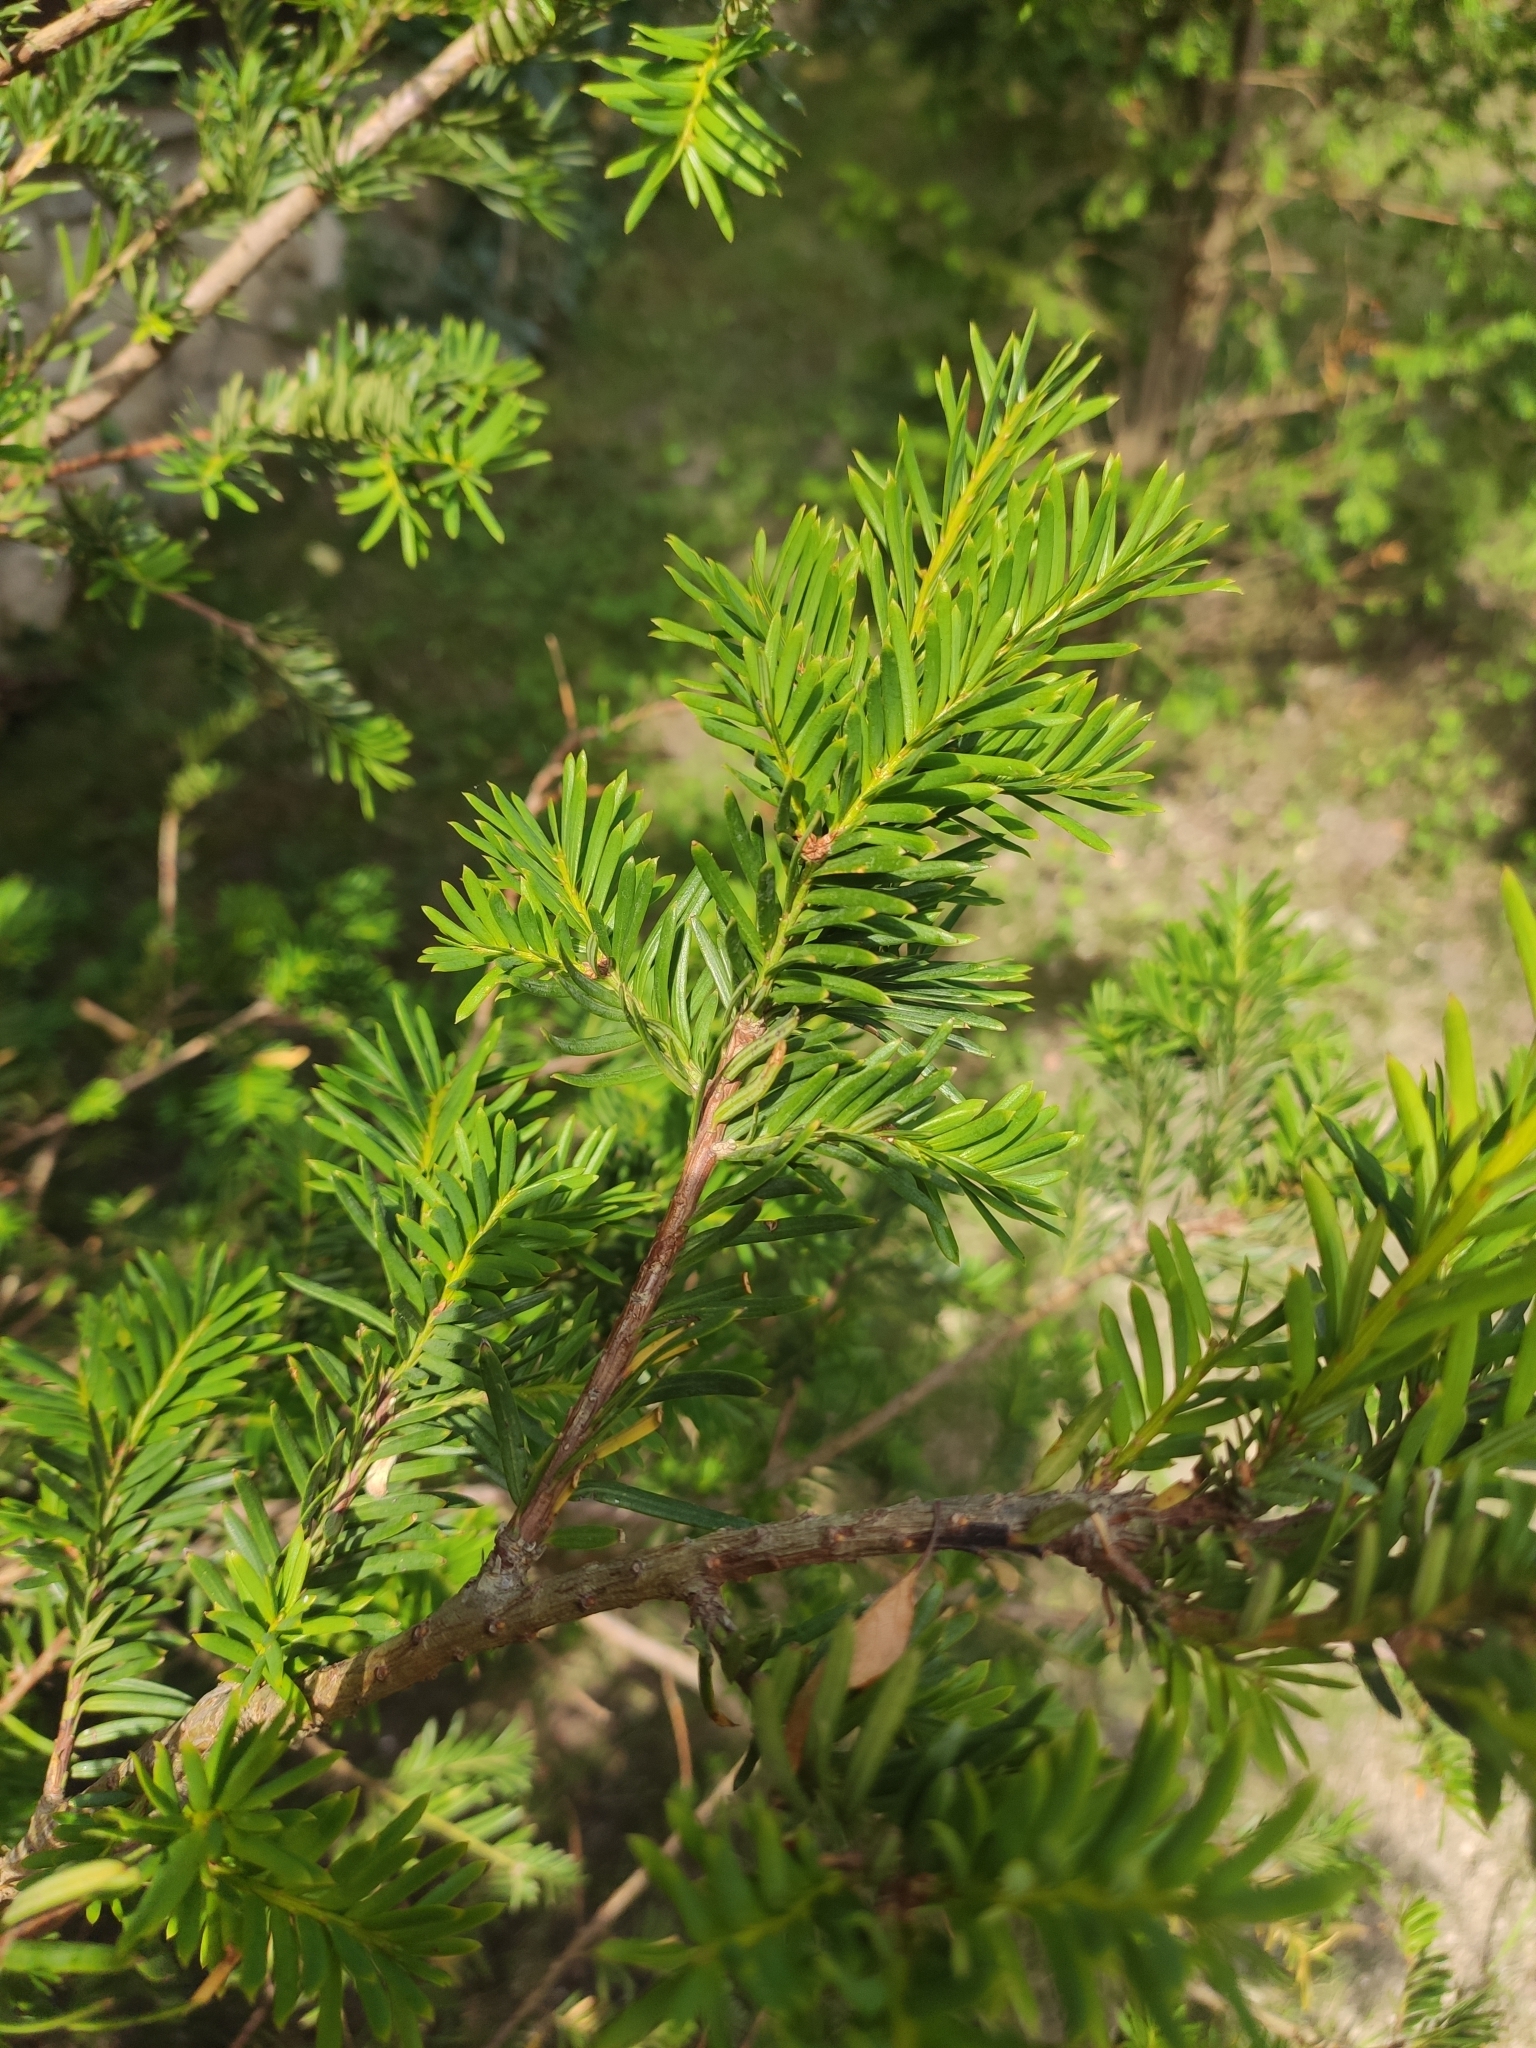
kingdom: Plantae
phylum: Tracheophyta
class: Pinopsida
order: Pinales
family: Taxaceae
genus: Taxus
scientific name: Taxus baccata
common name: Yew
